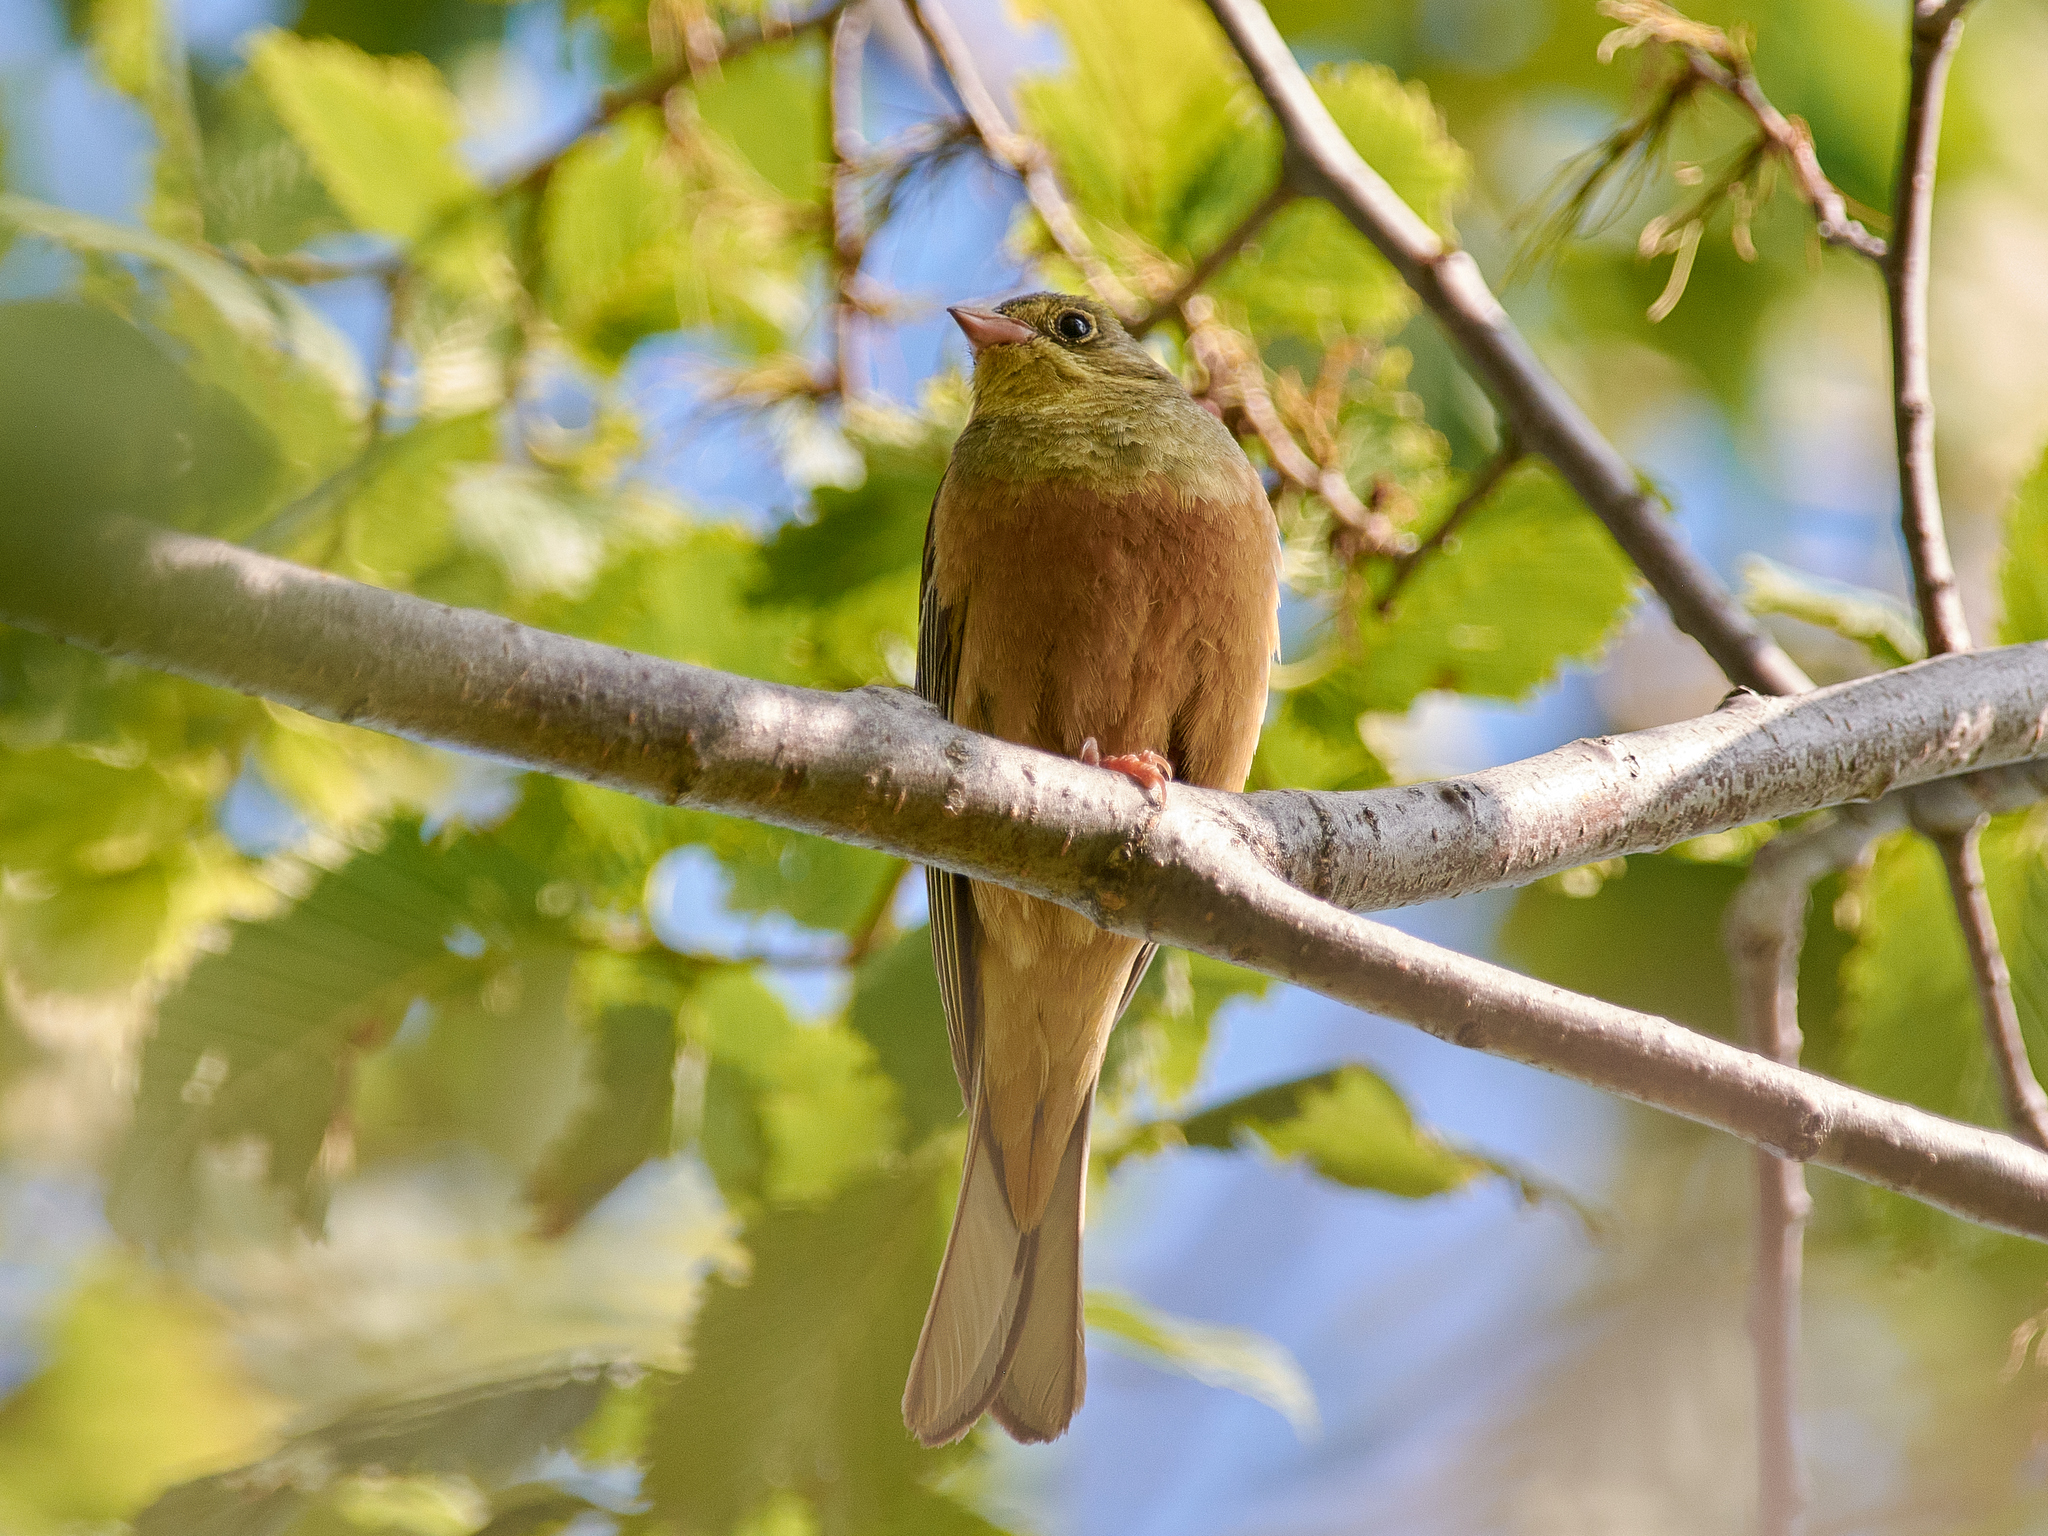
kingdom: Animalia
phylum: Chordata
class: Aves
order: Passeriformes
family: Emberizidae
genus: Emberiza
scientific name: Emberiza hortulana
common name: Ortolan bunting
